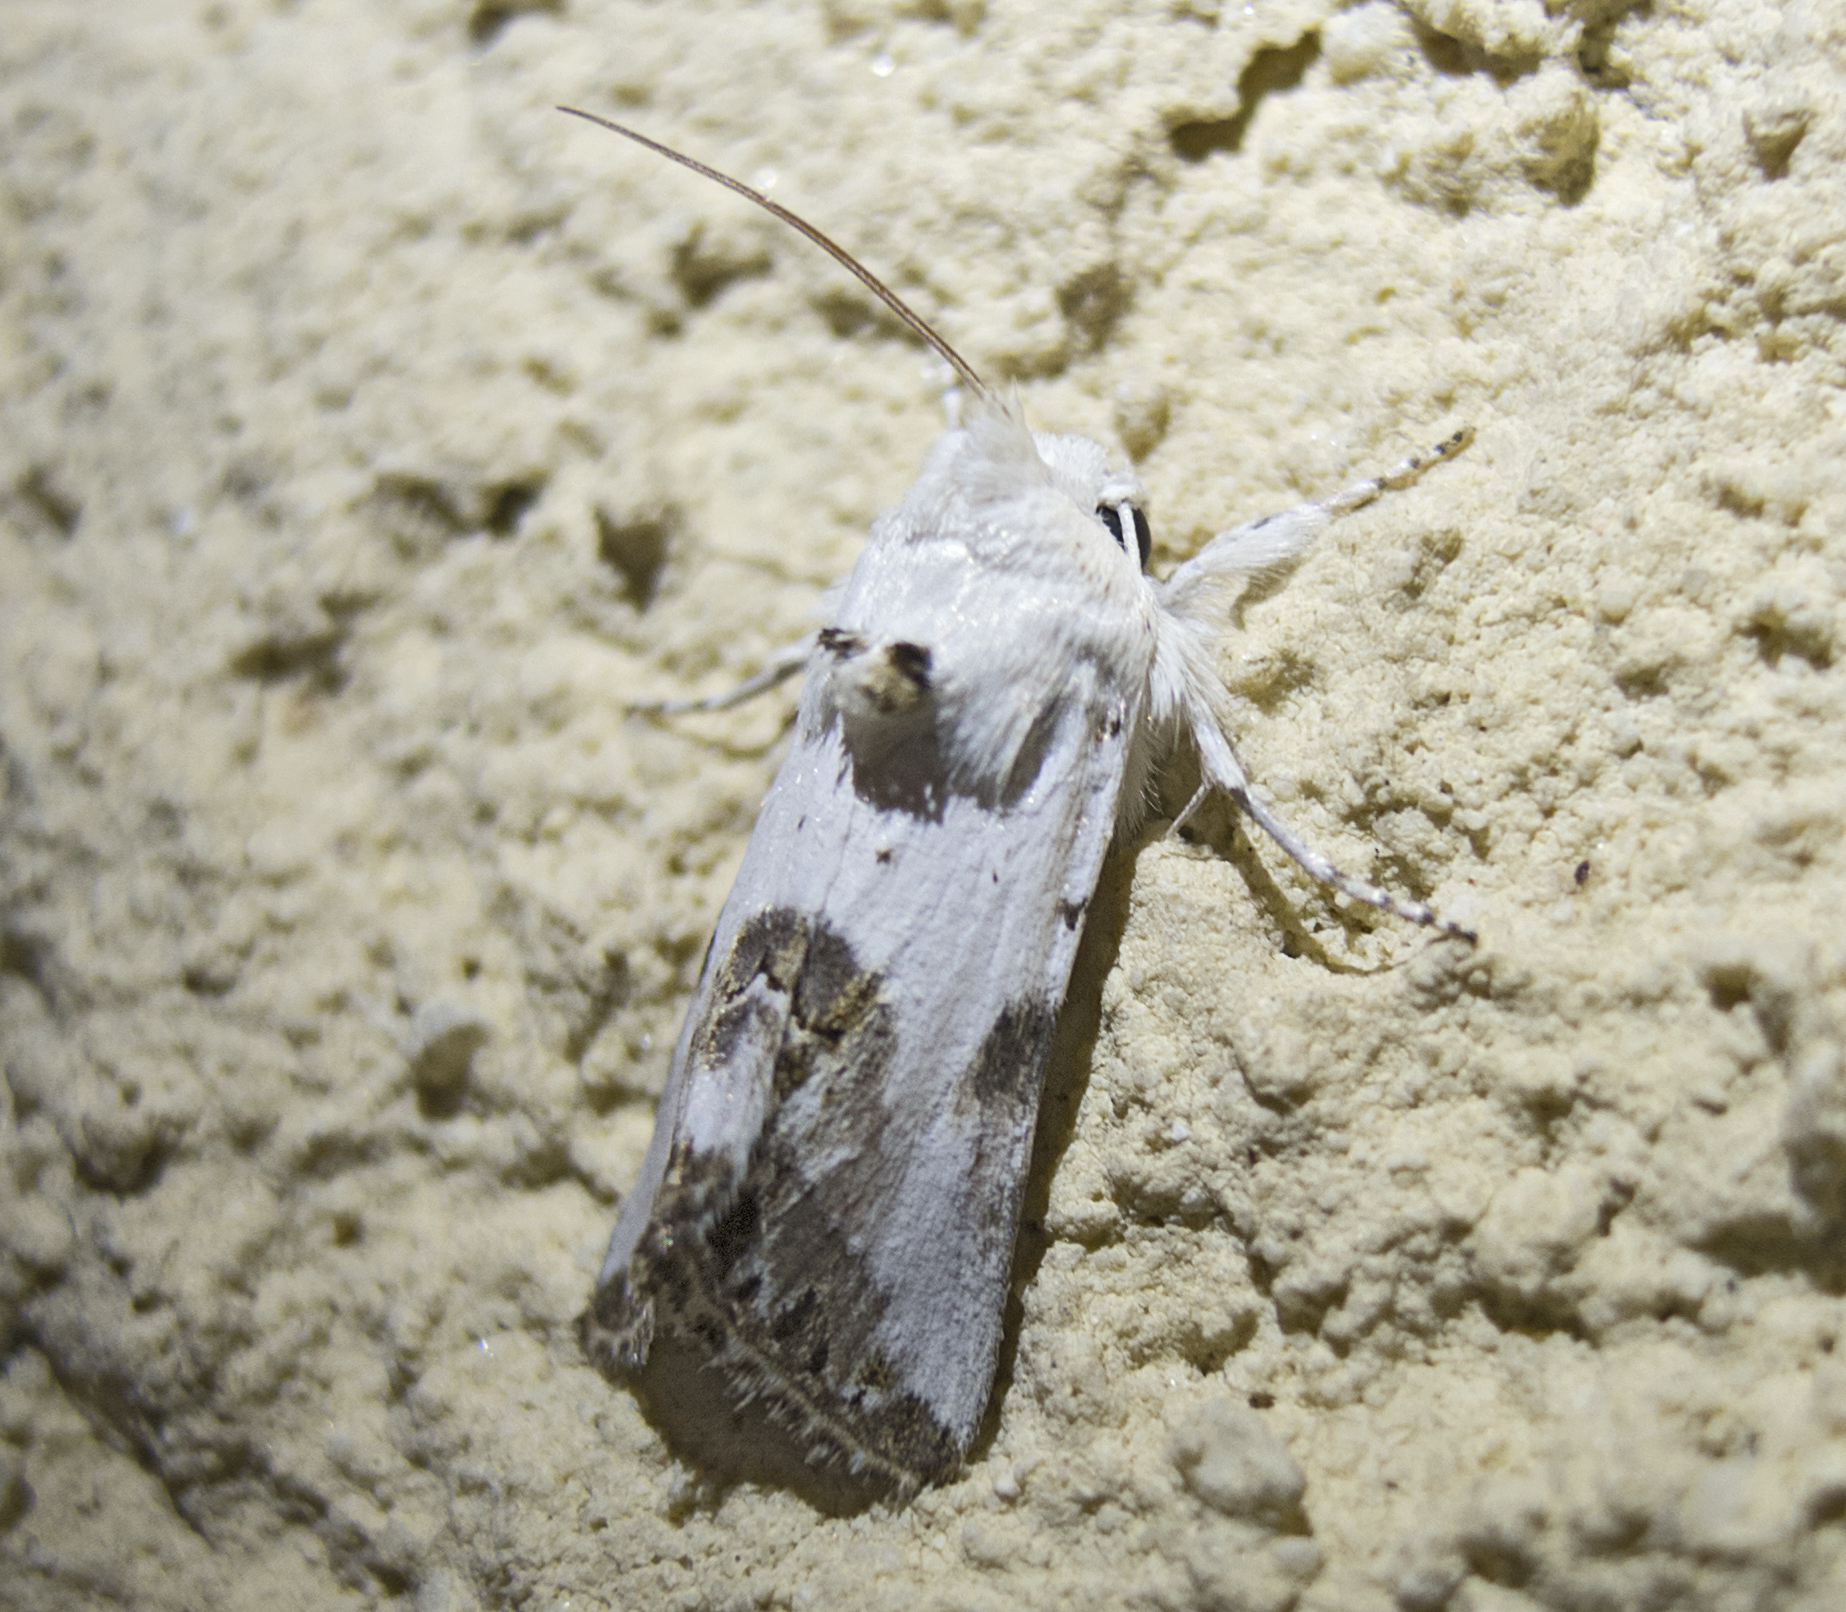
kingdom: Animalia
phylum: Arthropoda
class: Insecta
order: Lepidoptera
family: Noctuidae
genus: Calophasia
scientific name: Calophasia opalina
